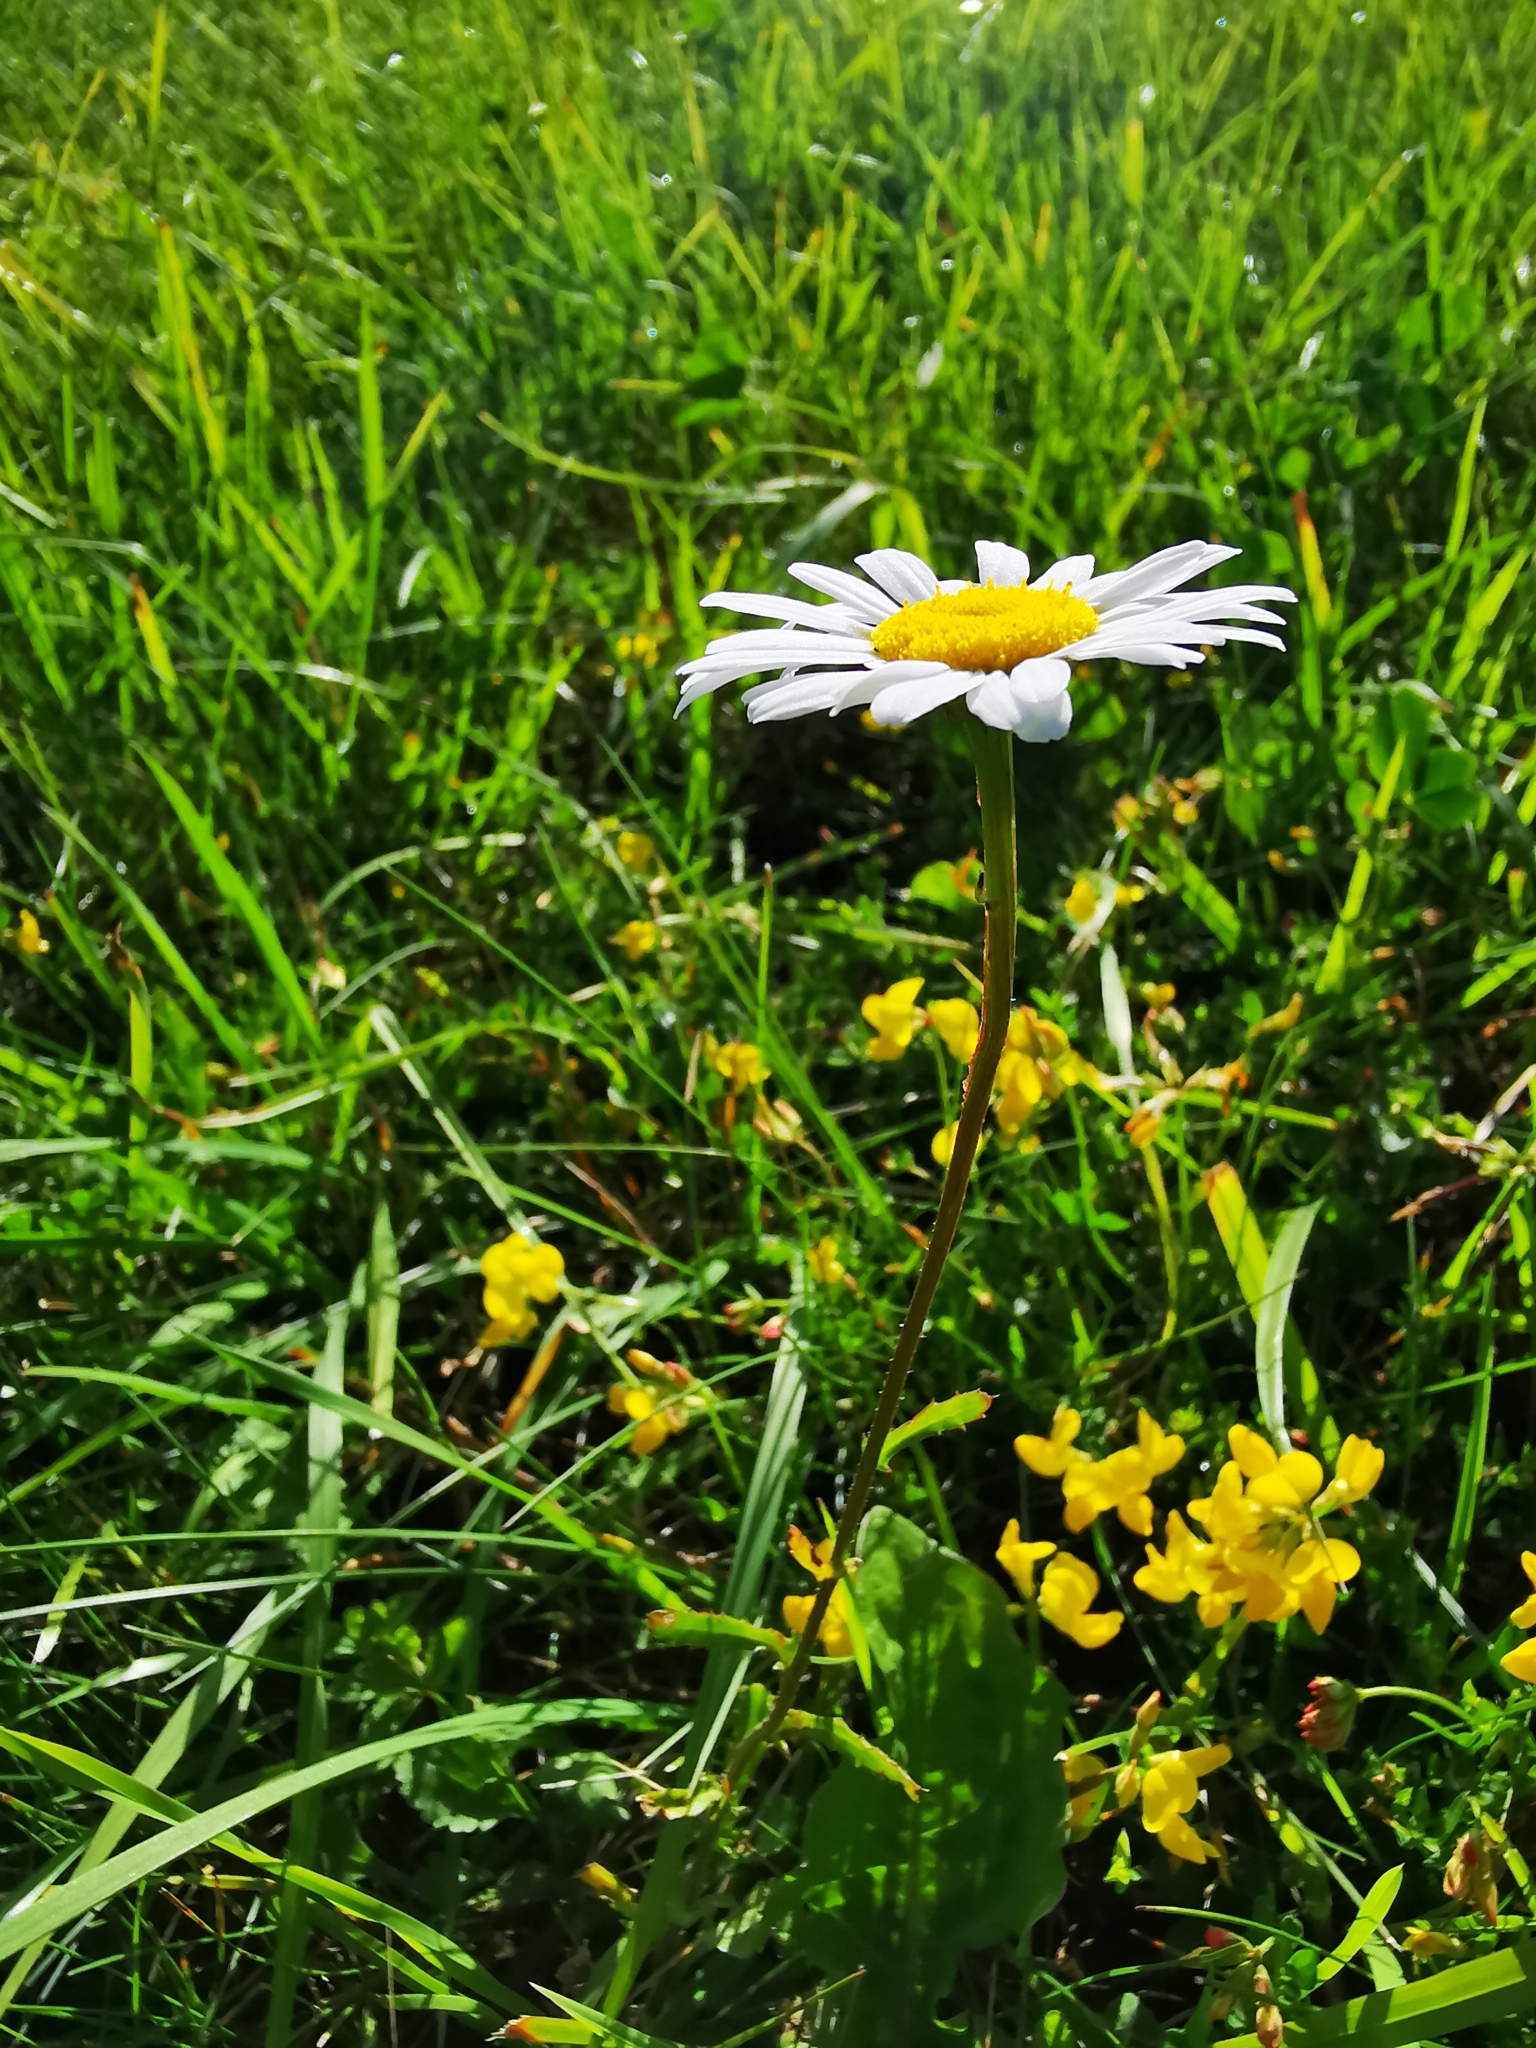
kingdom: Plantae
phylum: Tracheophyta
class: Magnoliopsida
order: Asterales
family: Asteraceae
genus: Leucanthemum
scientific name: Leucanthemum vulgare
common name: Oxeye daisy
